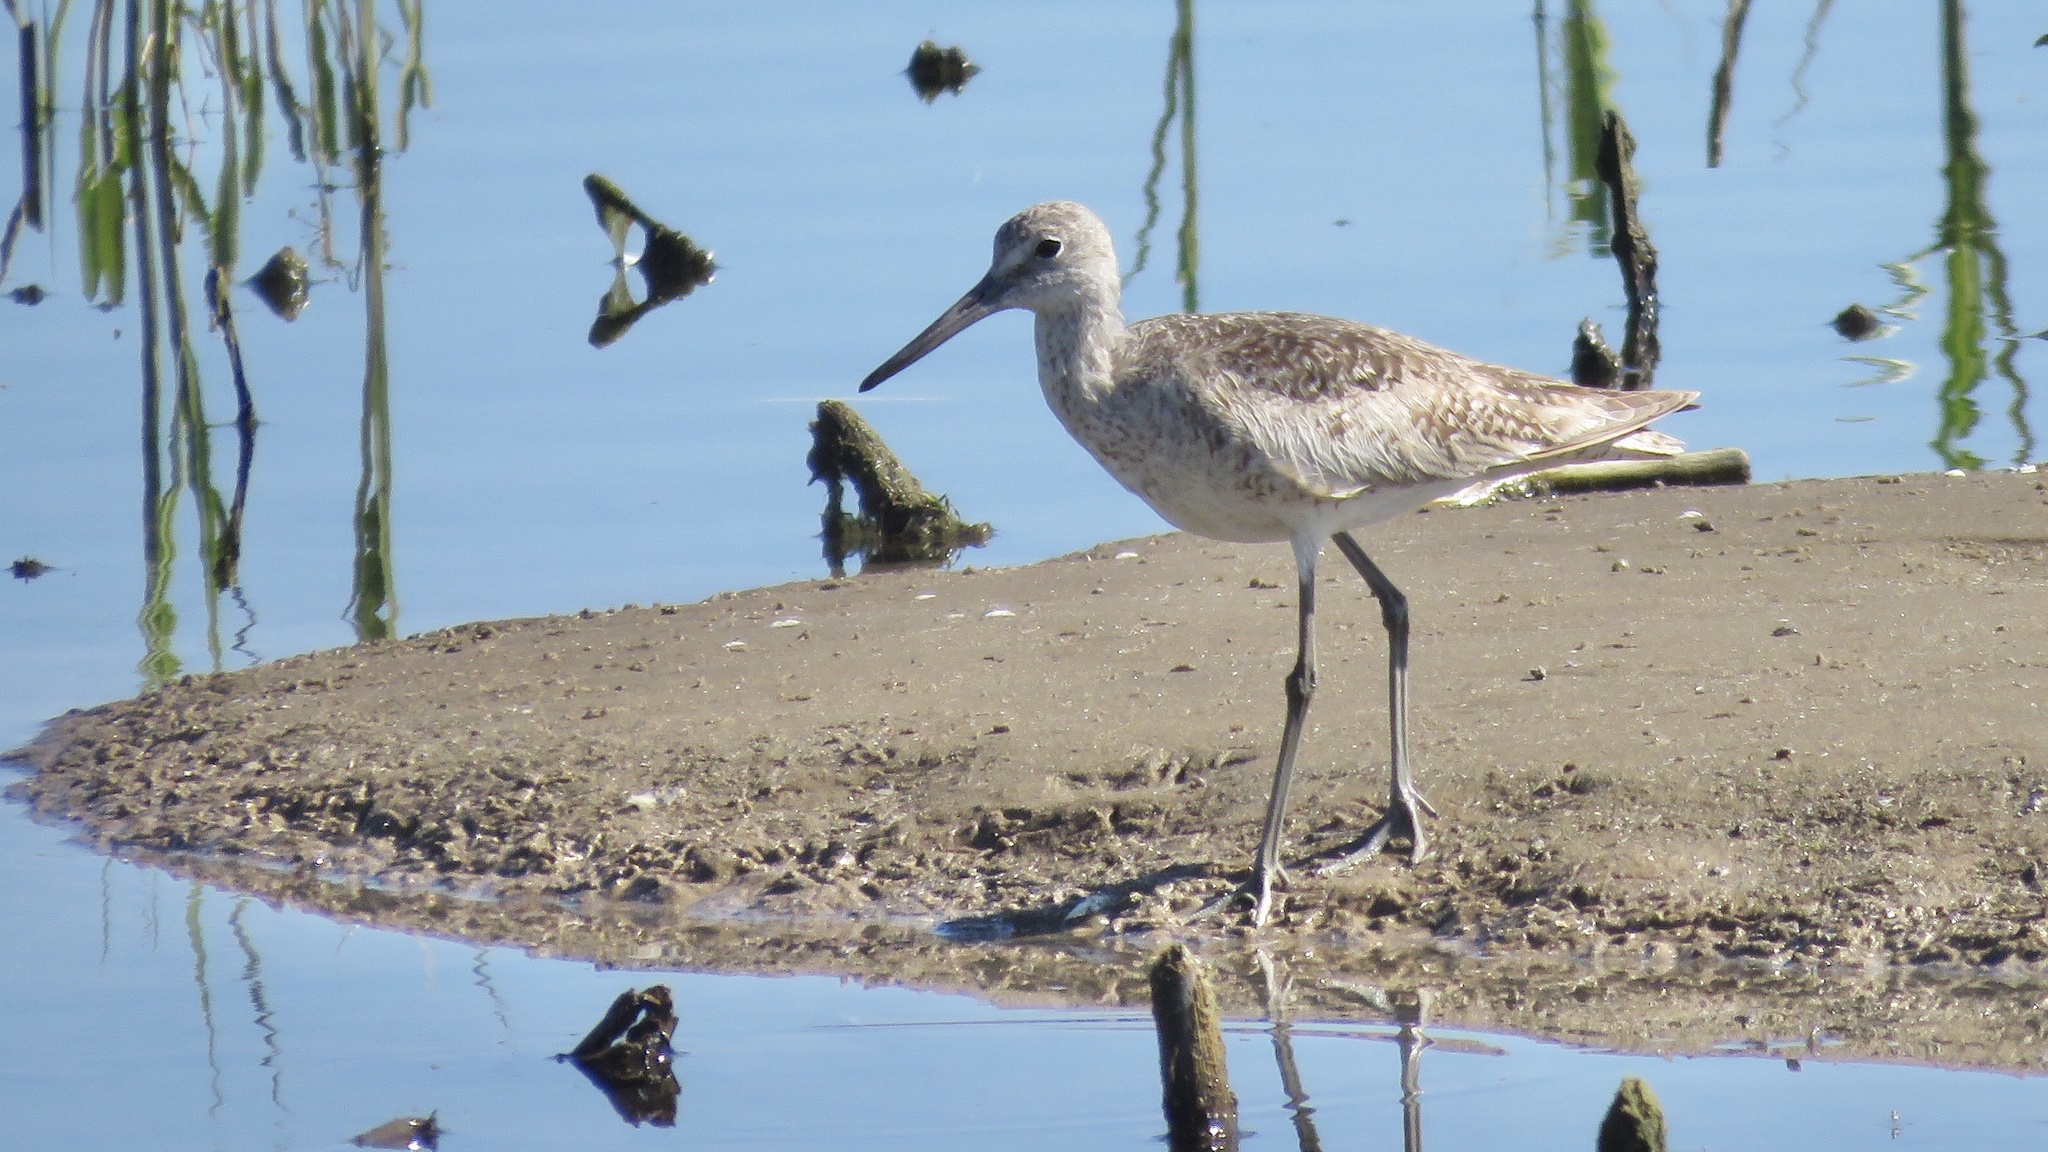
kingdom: Animalia
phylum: Chordata
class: Aves
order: Charadriiformes
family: Scolopacidae
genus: Tringa
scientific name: Tringa semipalmata
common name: Willet
